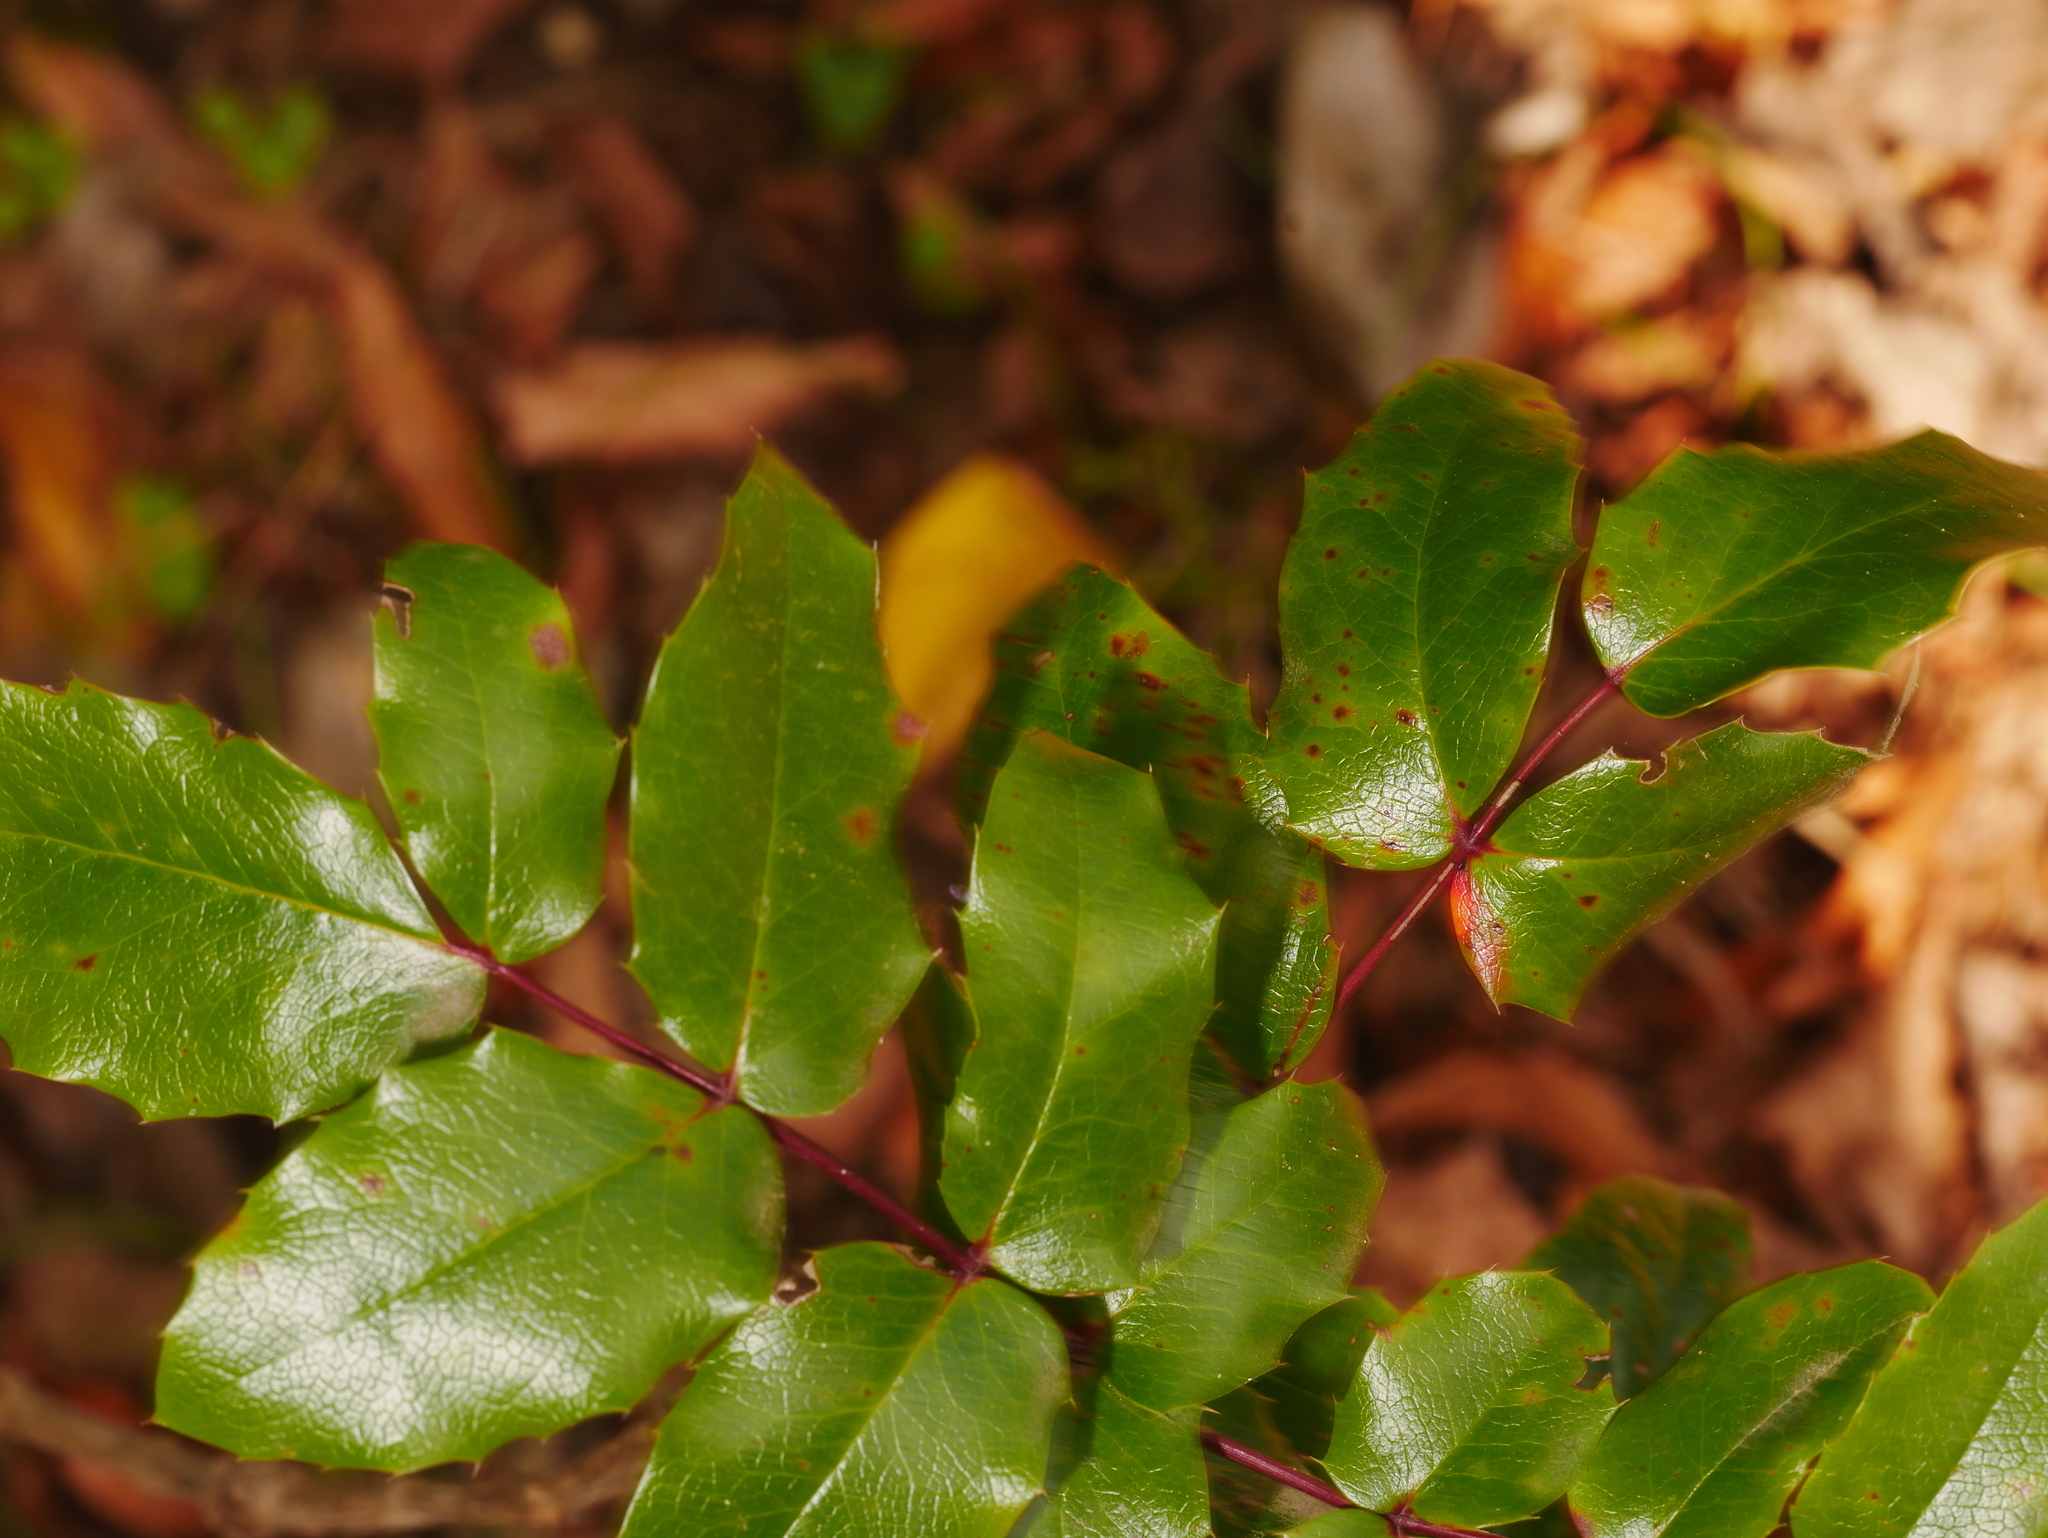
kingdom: Plantae
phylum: Tracheophyta
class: Magnoliopsida
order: Ranunculales
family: Berberidaceae
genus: Mahonia
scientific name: Mahonia aquifolium
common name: Oregon-grape
